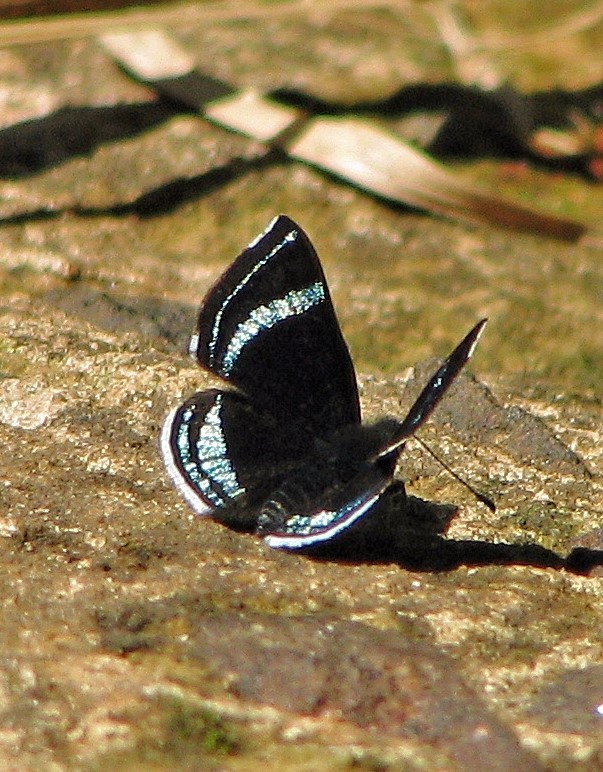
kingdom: Animalia
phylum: Arthropoda
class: Insecta
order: Lepidoptera
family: Riodinidae
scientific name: Riodinidae
